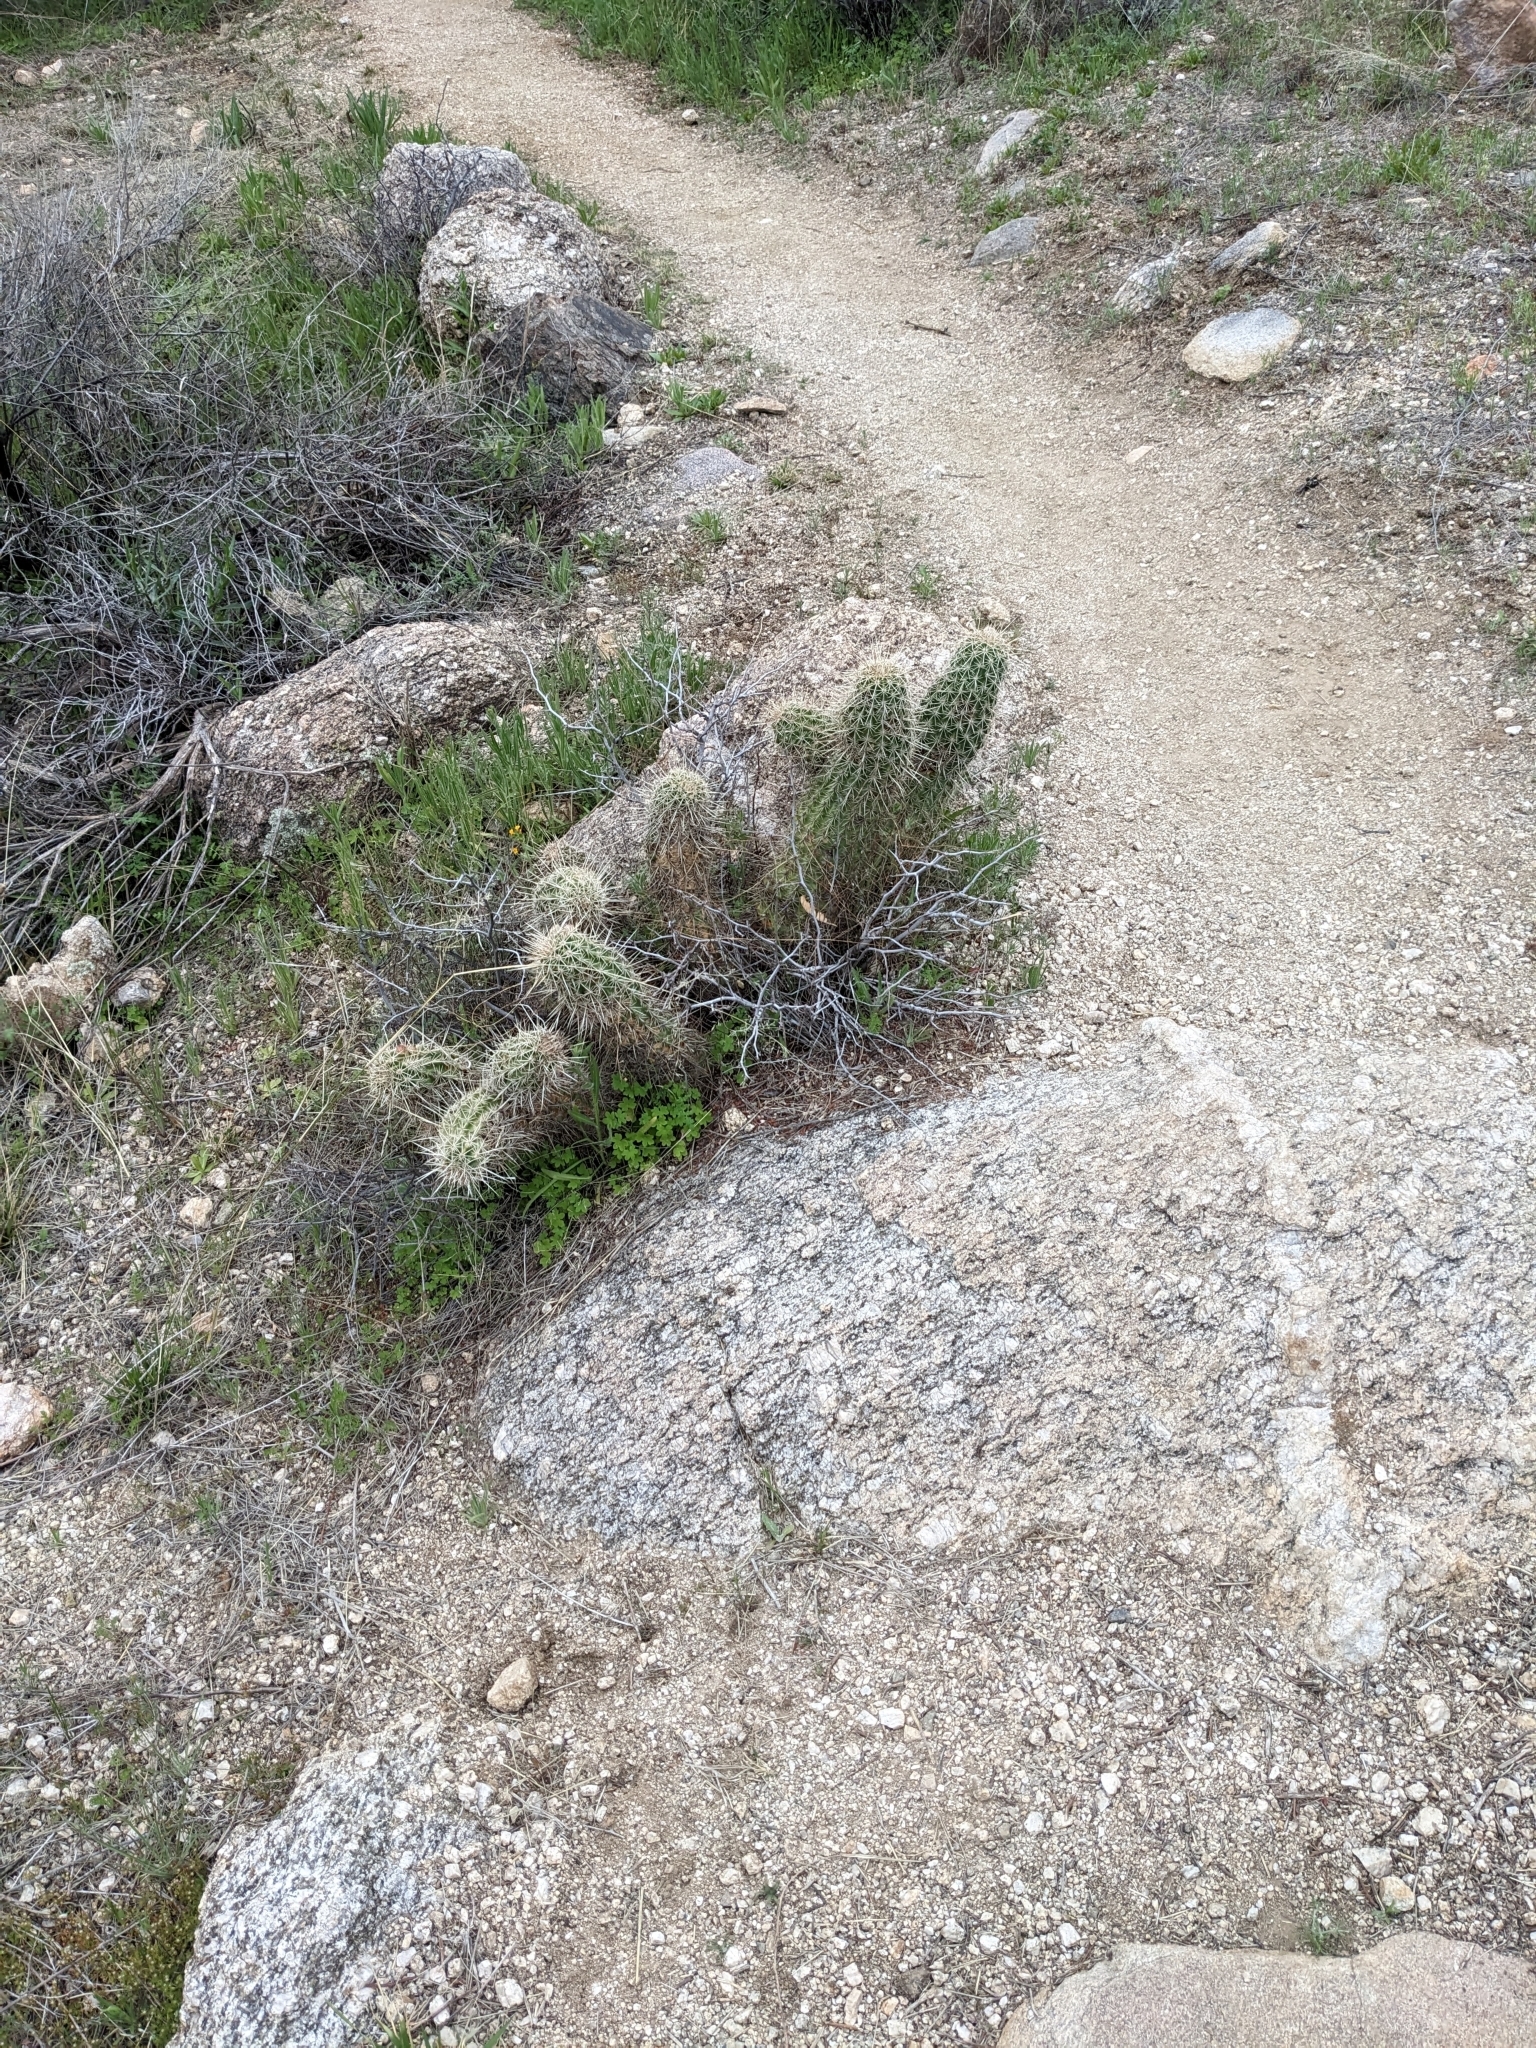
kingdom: Plantae
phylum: Tracheophyta
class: Magnoliopsida
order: Caryophyllales
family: Cactaceae
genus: Echinocereus
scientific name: Echinocereus fasciculatus
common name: Bundle hedgehog
